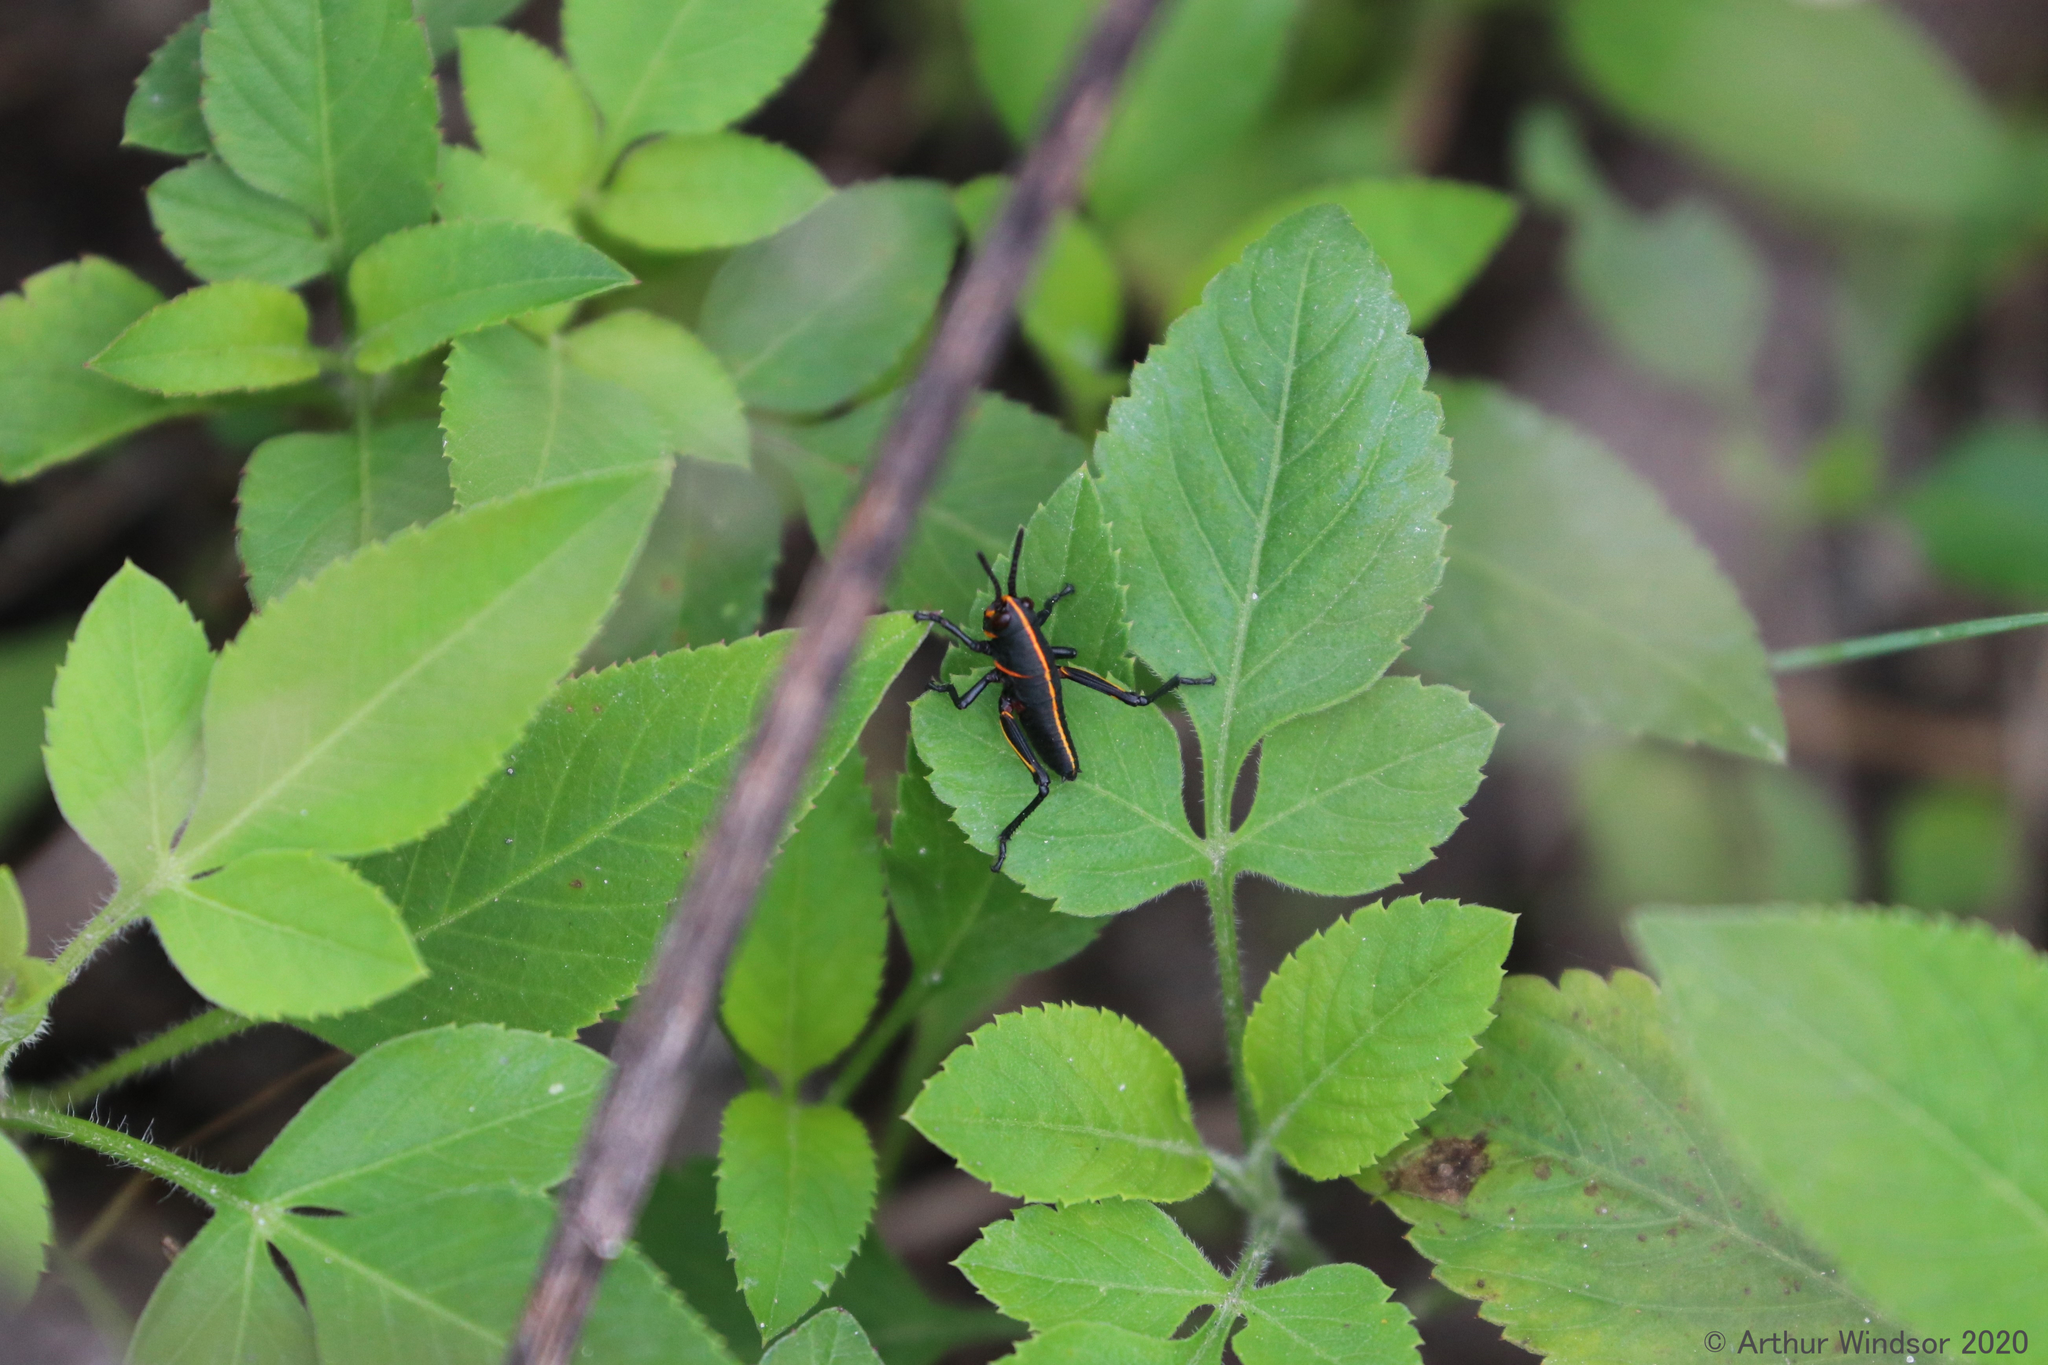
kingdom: Animalia
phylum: Arthropoda
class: Insecta
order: Orthoptera
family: Romaleidae
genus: Romalea
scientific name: Romalea microptera
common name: Eastern lubber grasshopper
